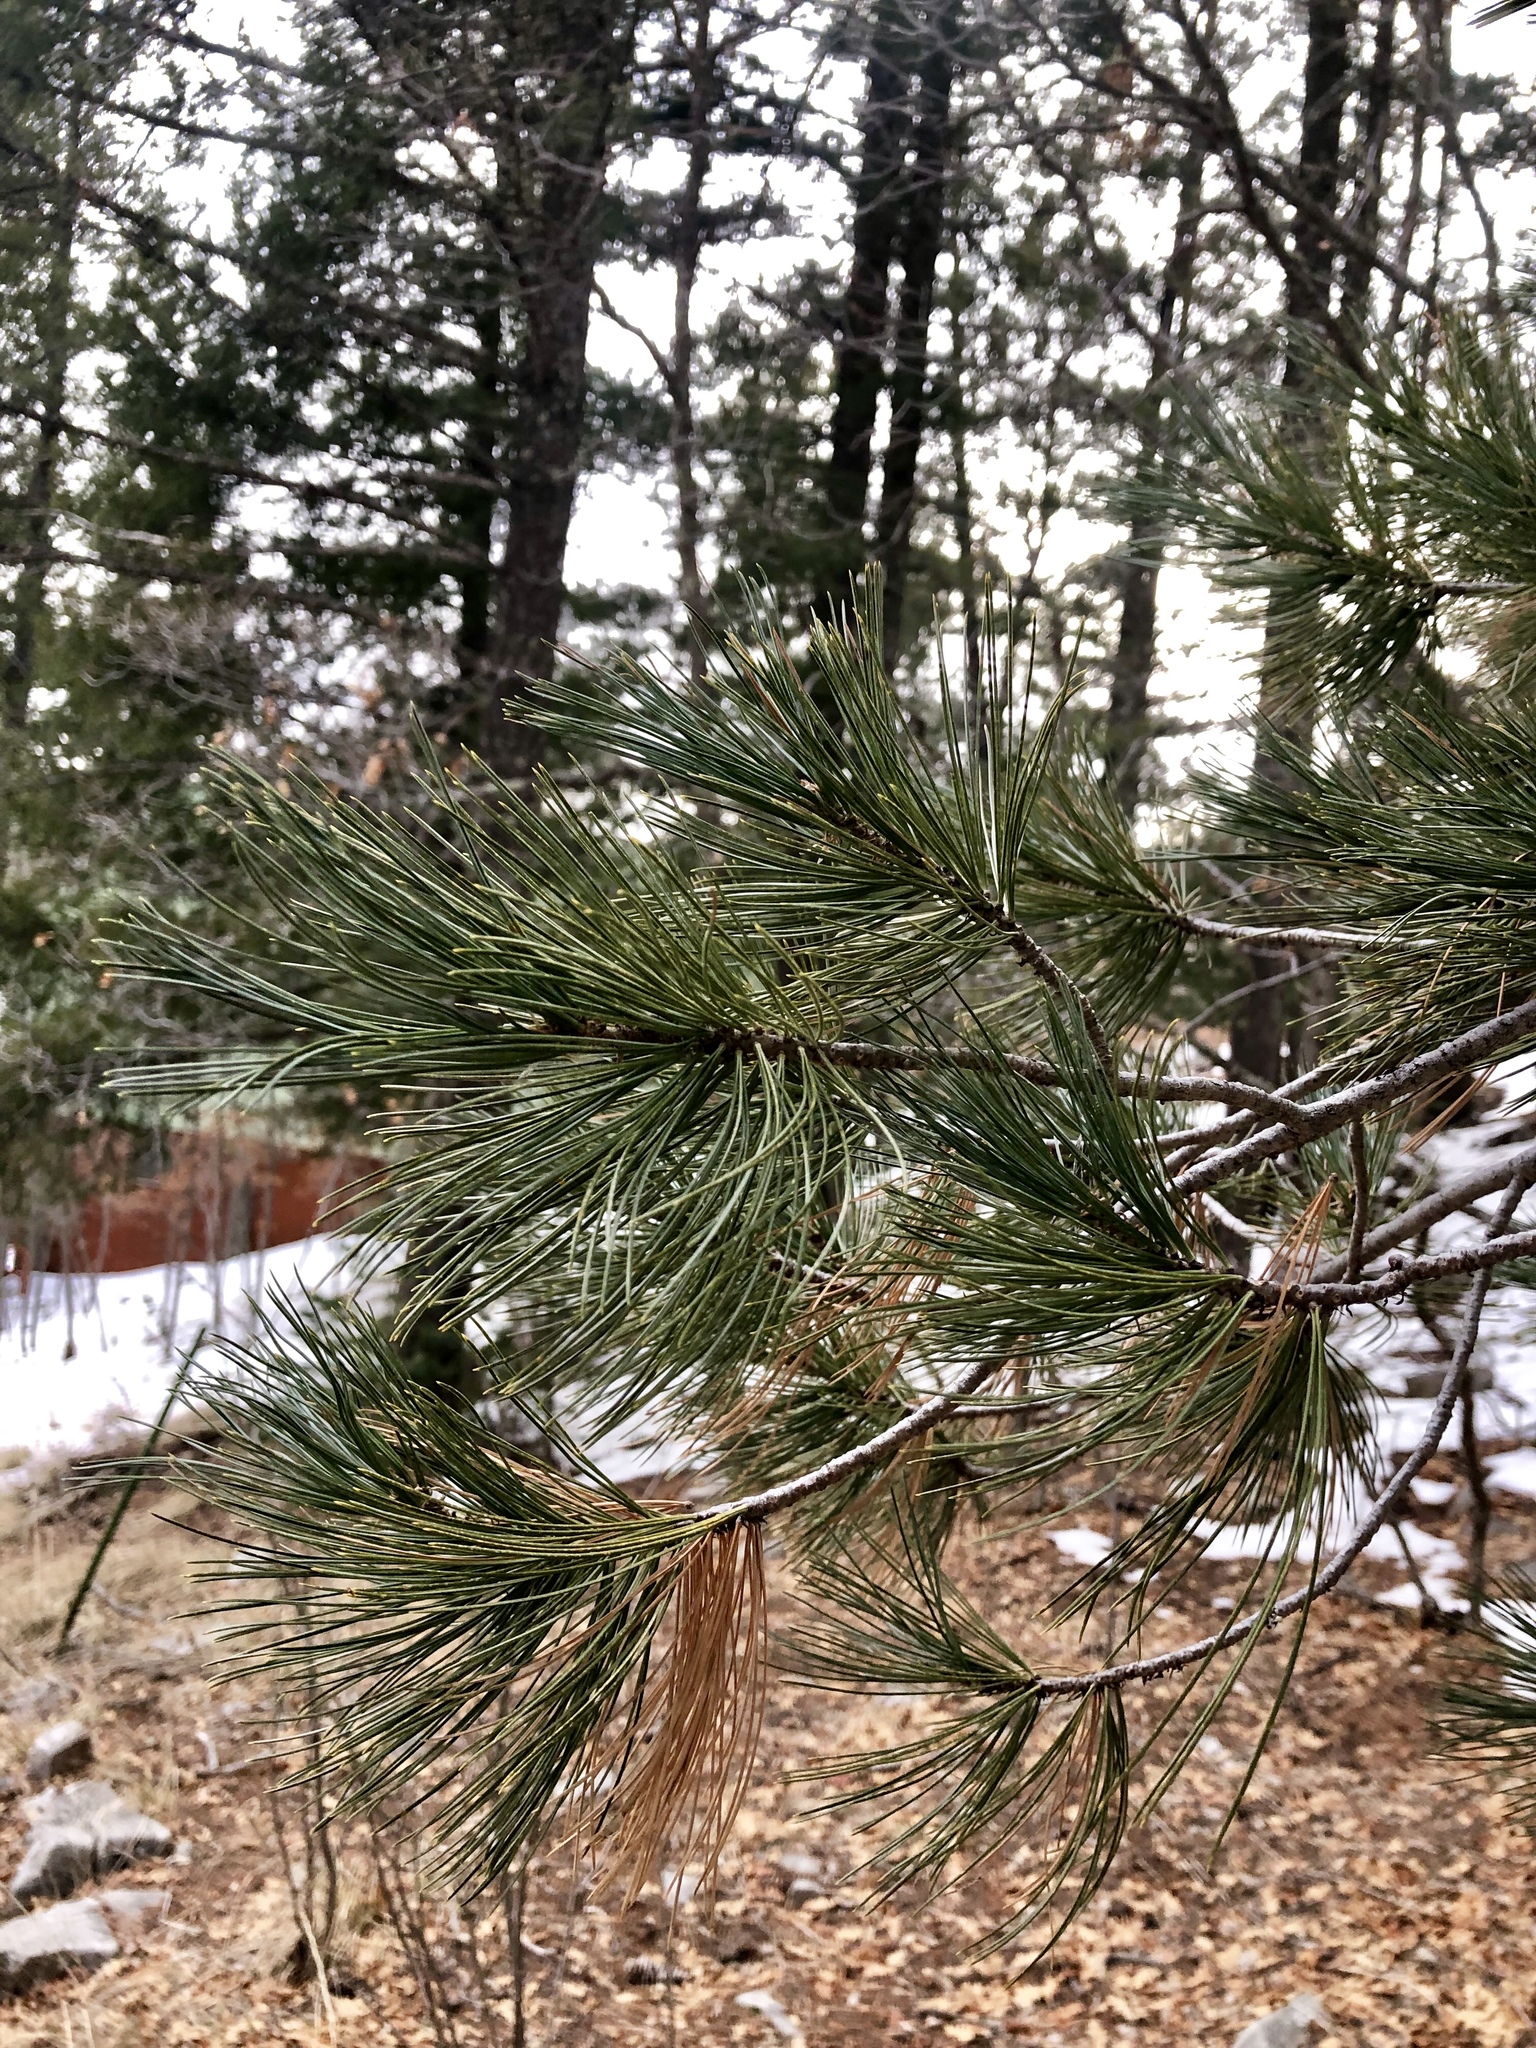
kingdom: Plantae
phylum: Tracheophyta
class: Pinopsida
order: Pinales
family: Pinaceae
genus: Pinus
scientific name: Pinus strobiformis
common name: Southwestern white pine
